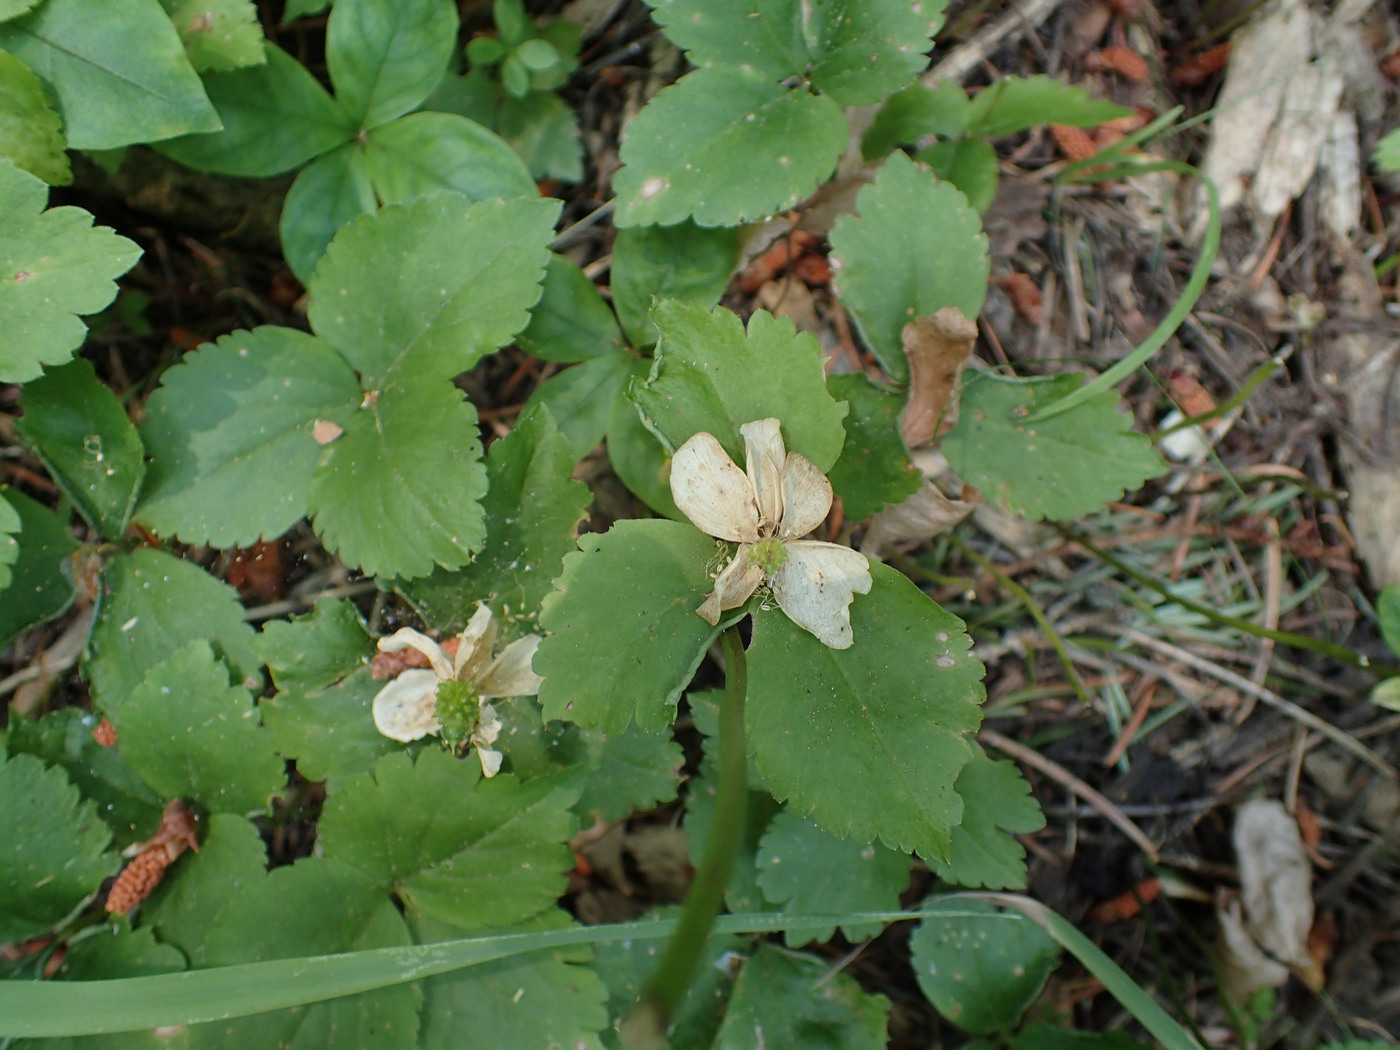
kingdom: Plantae
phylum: Tracheophyta
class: Magnoliopsida
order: Ranunculales
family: Ranunculaceae
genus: Anemonastrum
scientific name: Anemonastrum deltoideum
